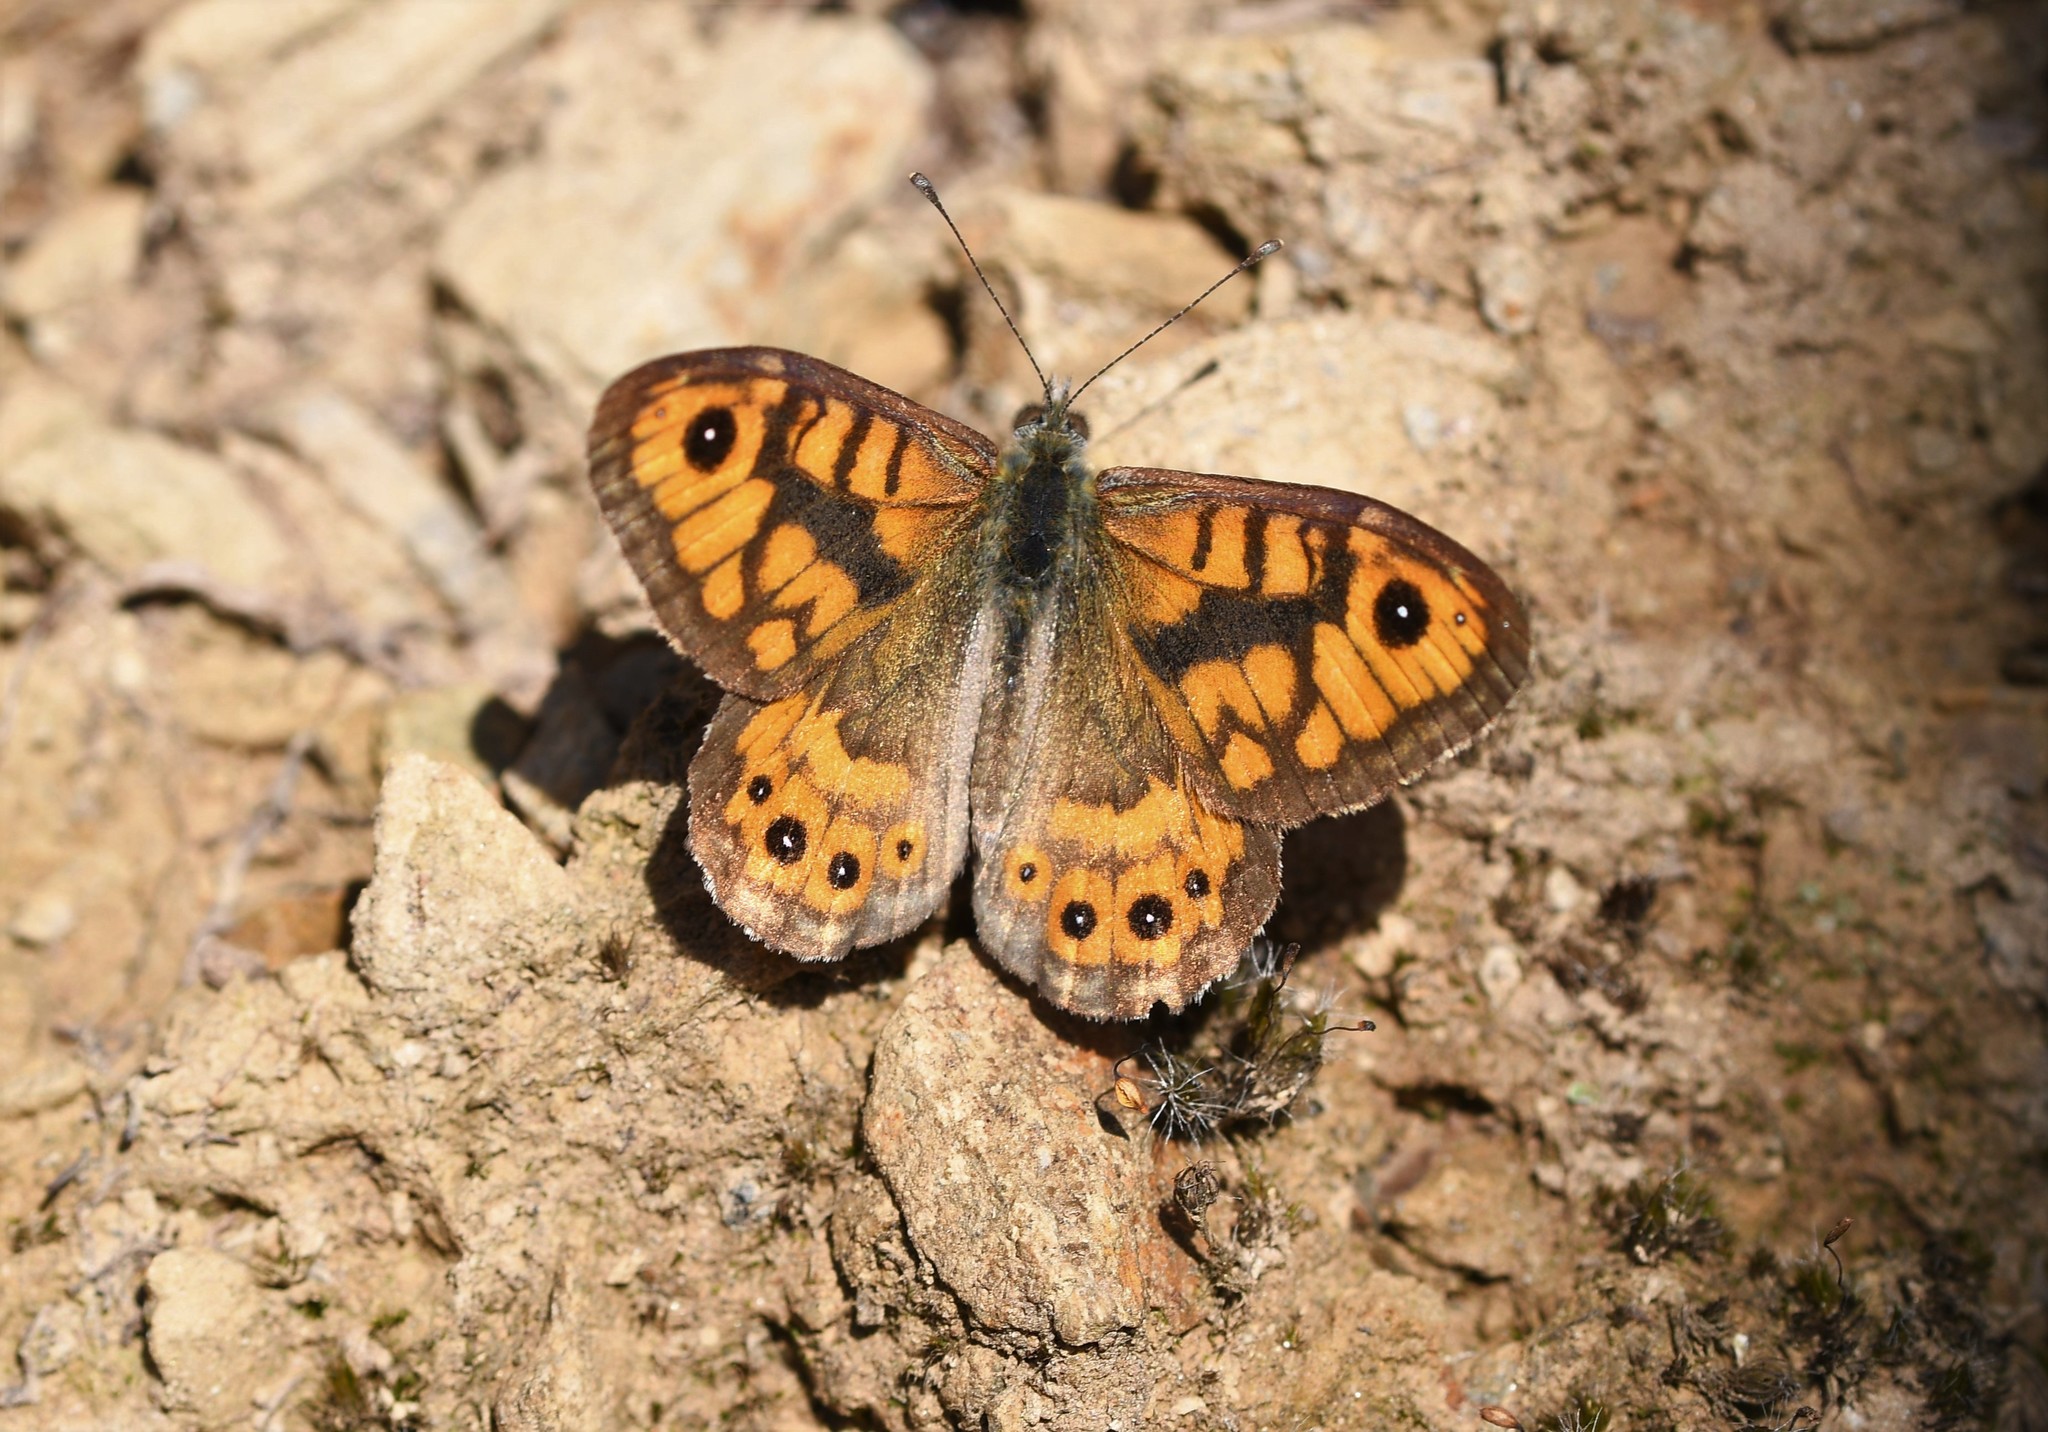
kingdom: Animalia
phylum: Arthropoda
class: Insecta
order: Lepidoptera
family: Nymphalidae
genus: Pararge
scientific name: Pararge Lasiommata megera
